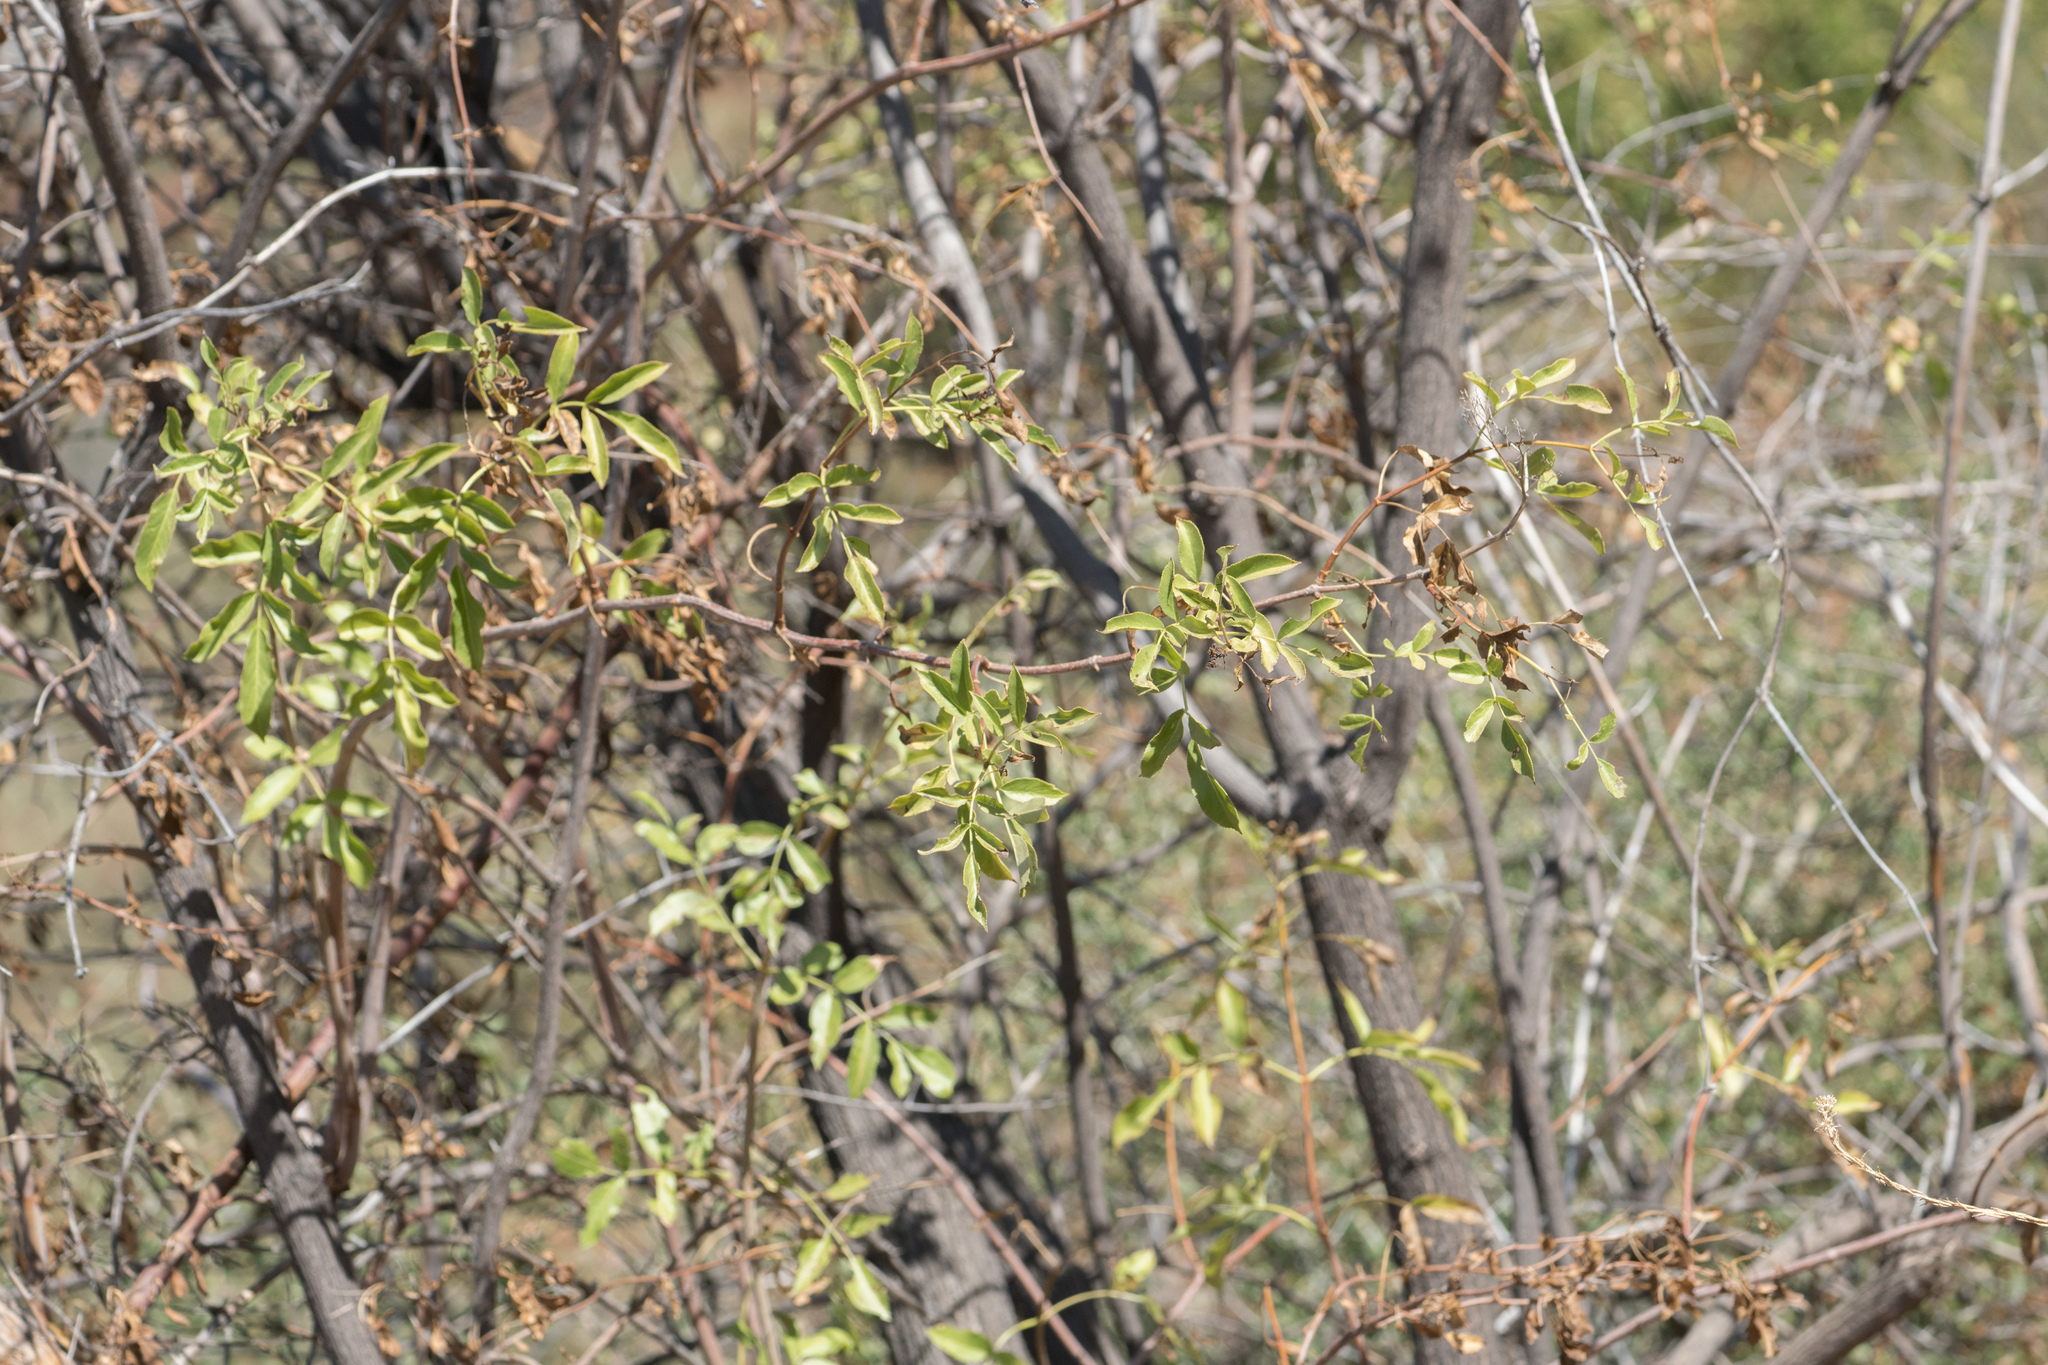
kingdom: Plantae
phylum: Tracheophyta
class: Magnoliopsida
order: Dipsacales
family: Viburnaceae
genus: Sambucus
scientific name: Sambucus cerulea
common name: Blue elder
